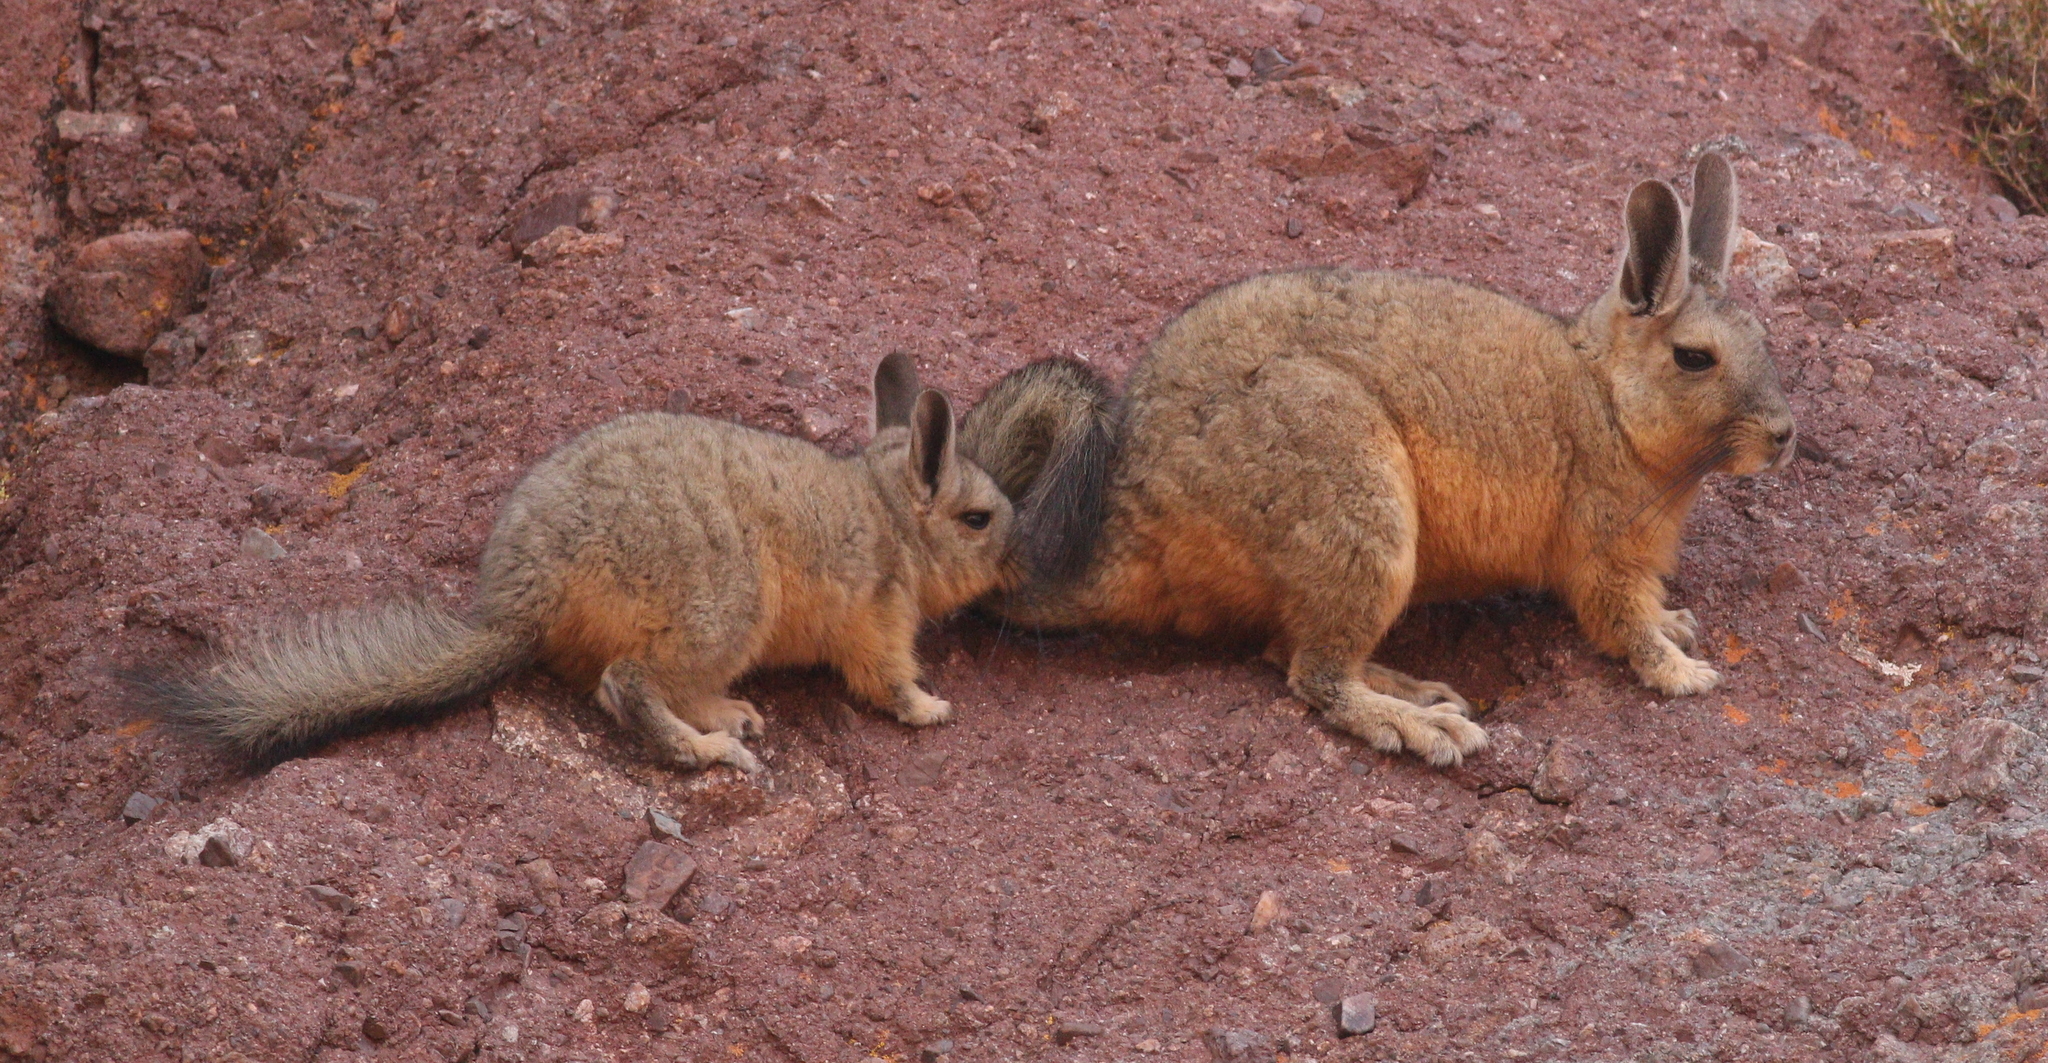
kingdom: Animalia
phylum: Chordata
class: Mammalia
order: Rodentia
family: Chinchillidae
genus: Lagidium
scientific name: Lagidium viscacia
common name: Southern viscacha
